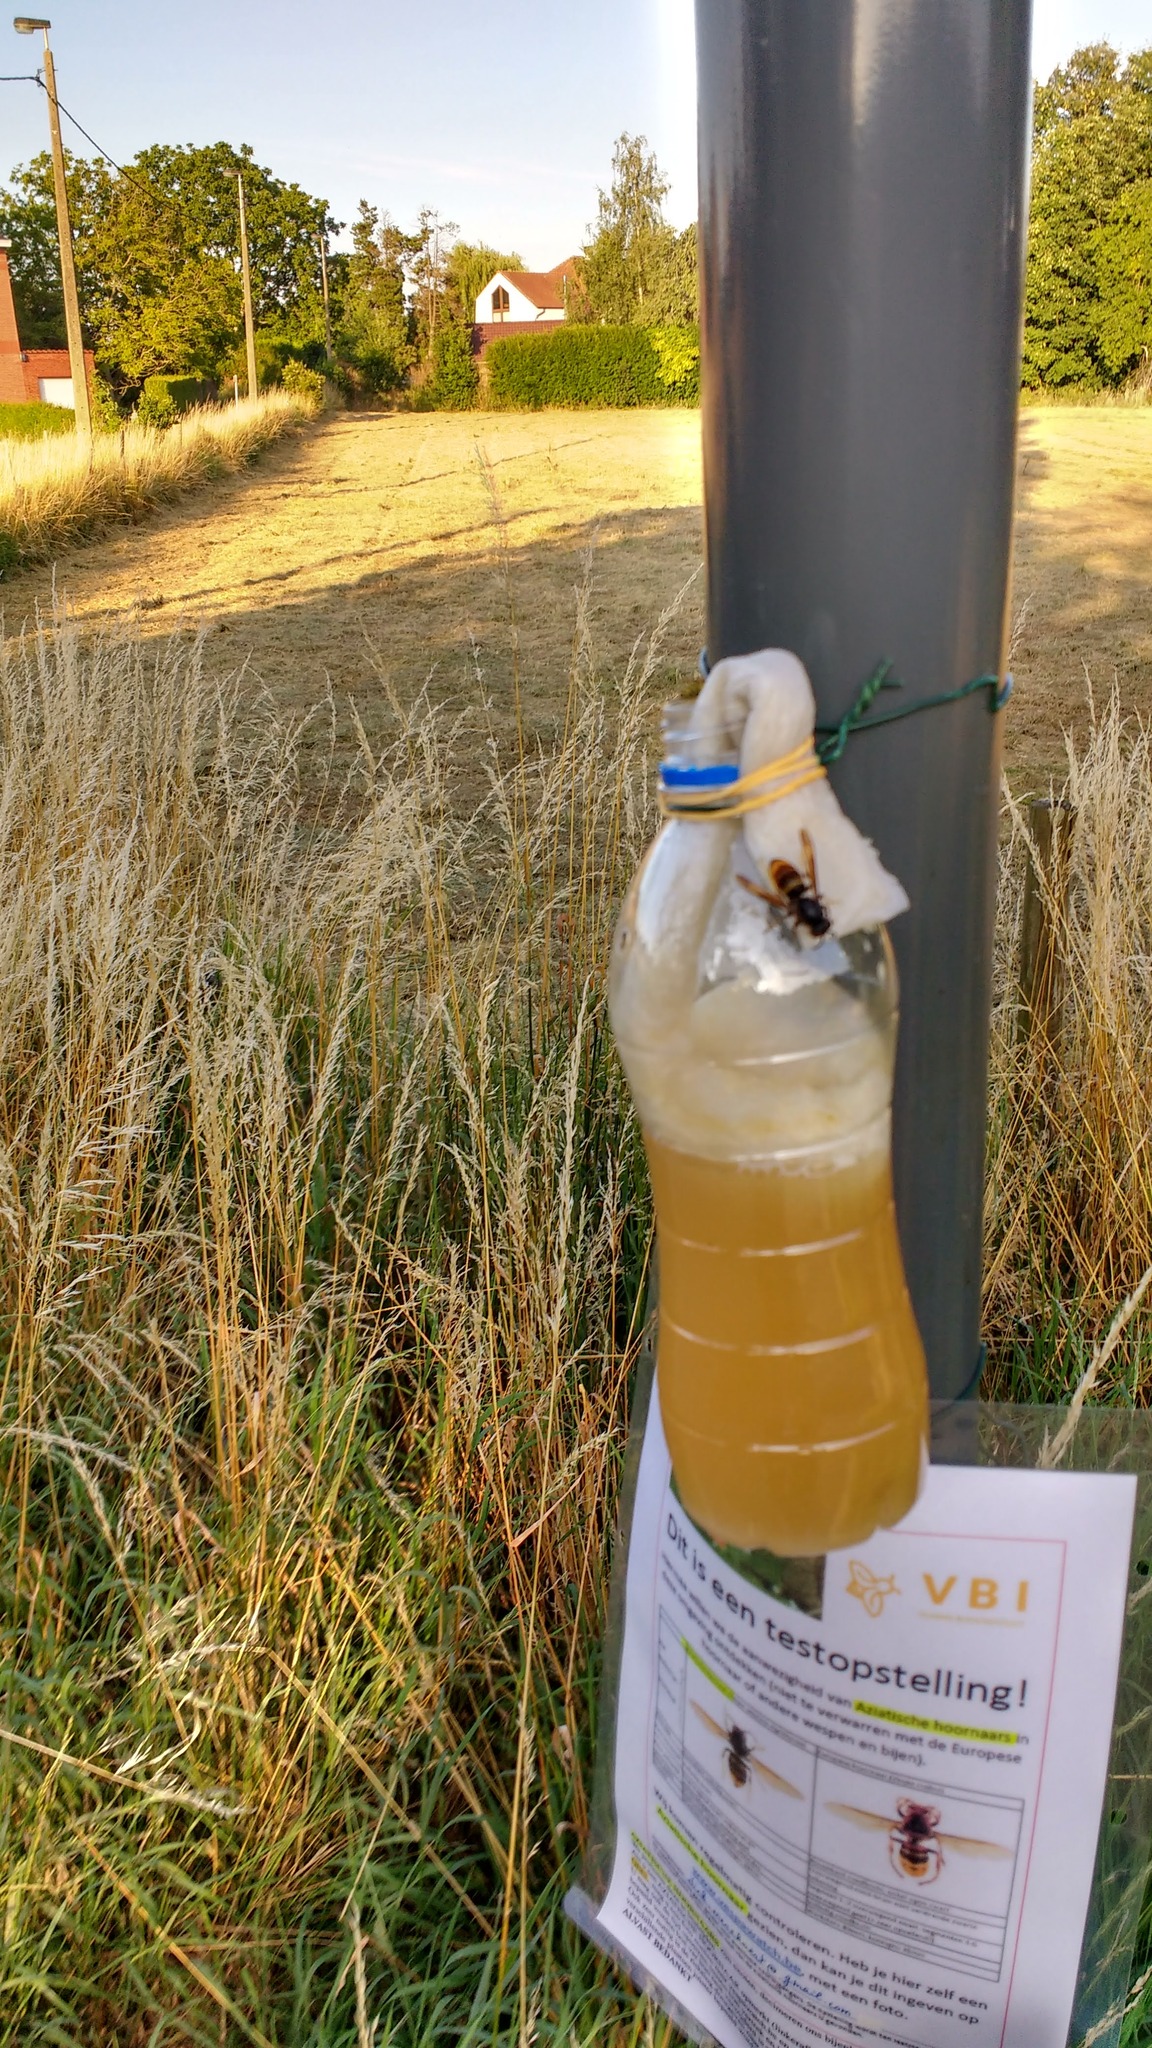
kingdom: Animalia
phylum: Arthropoda
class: Insecta
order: Hymenoptera
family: Vespidae
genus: Vespa
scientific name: Vespa velutina
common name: Asian hornet
